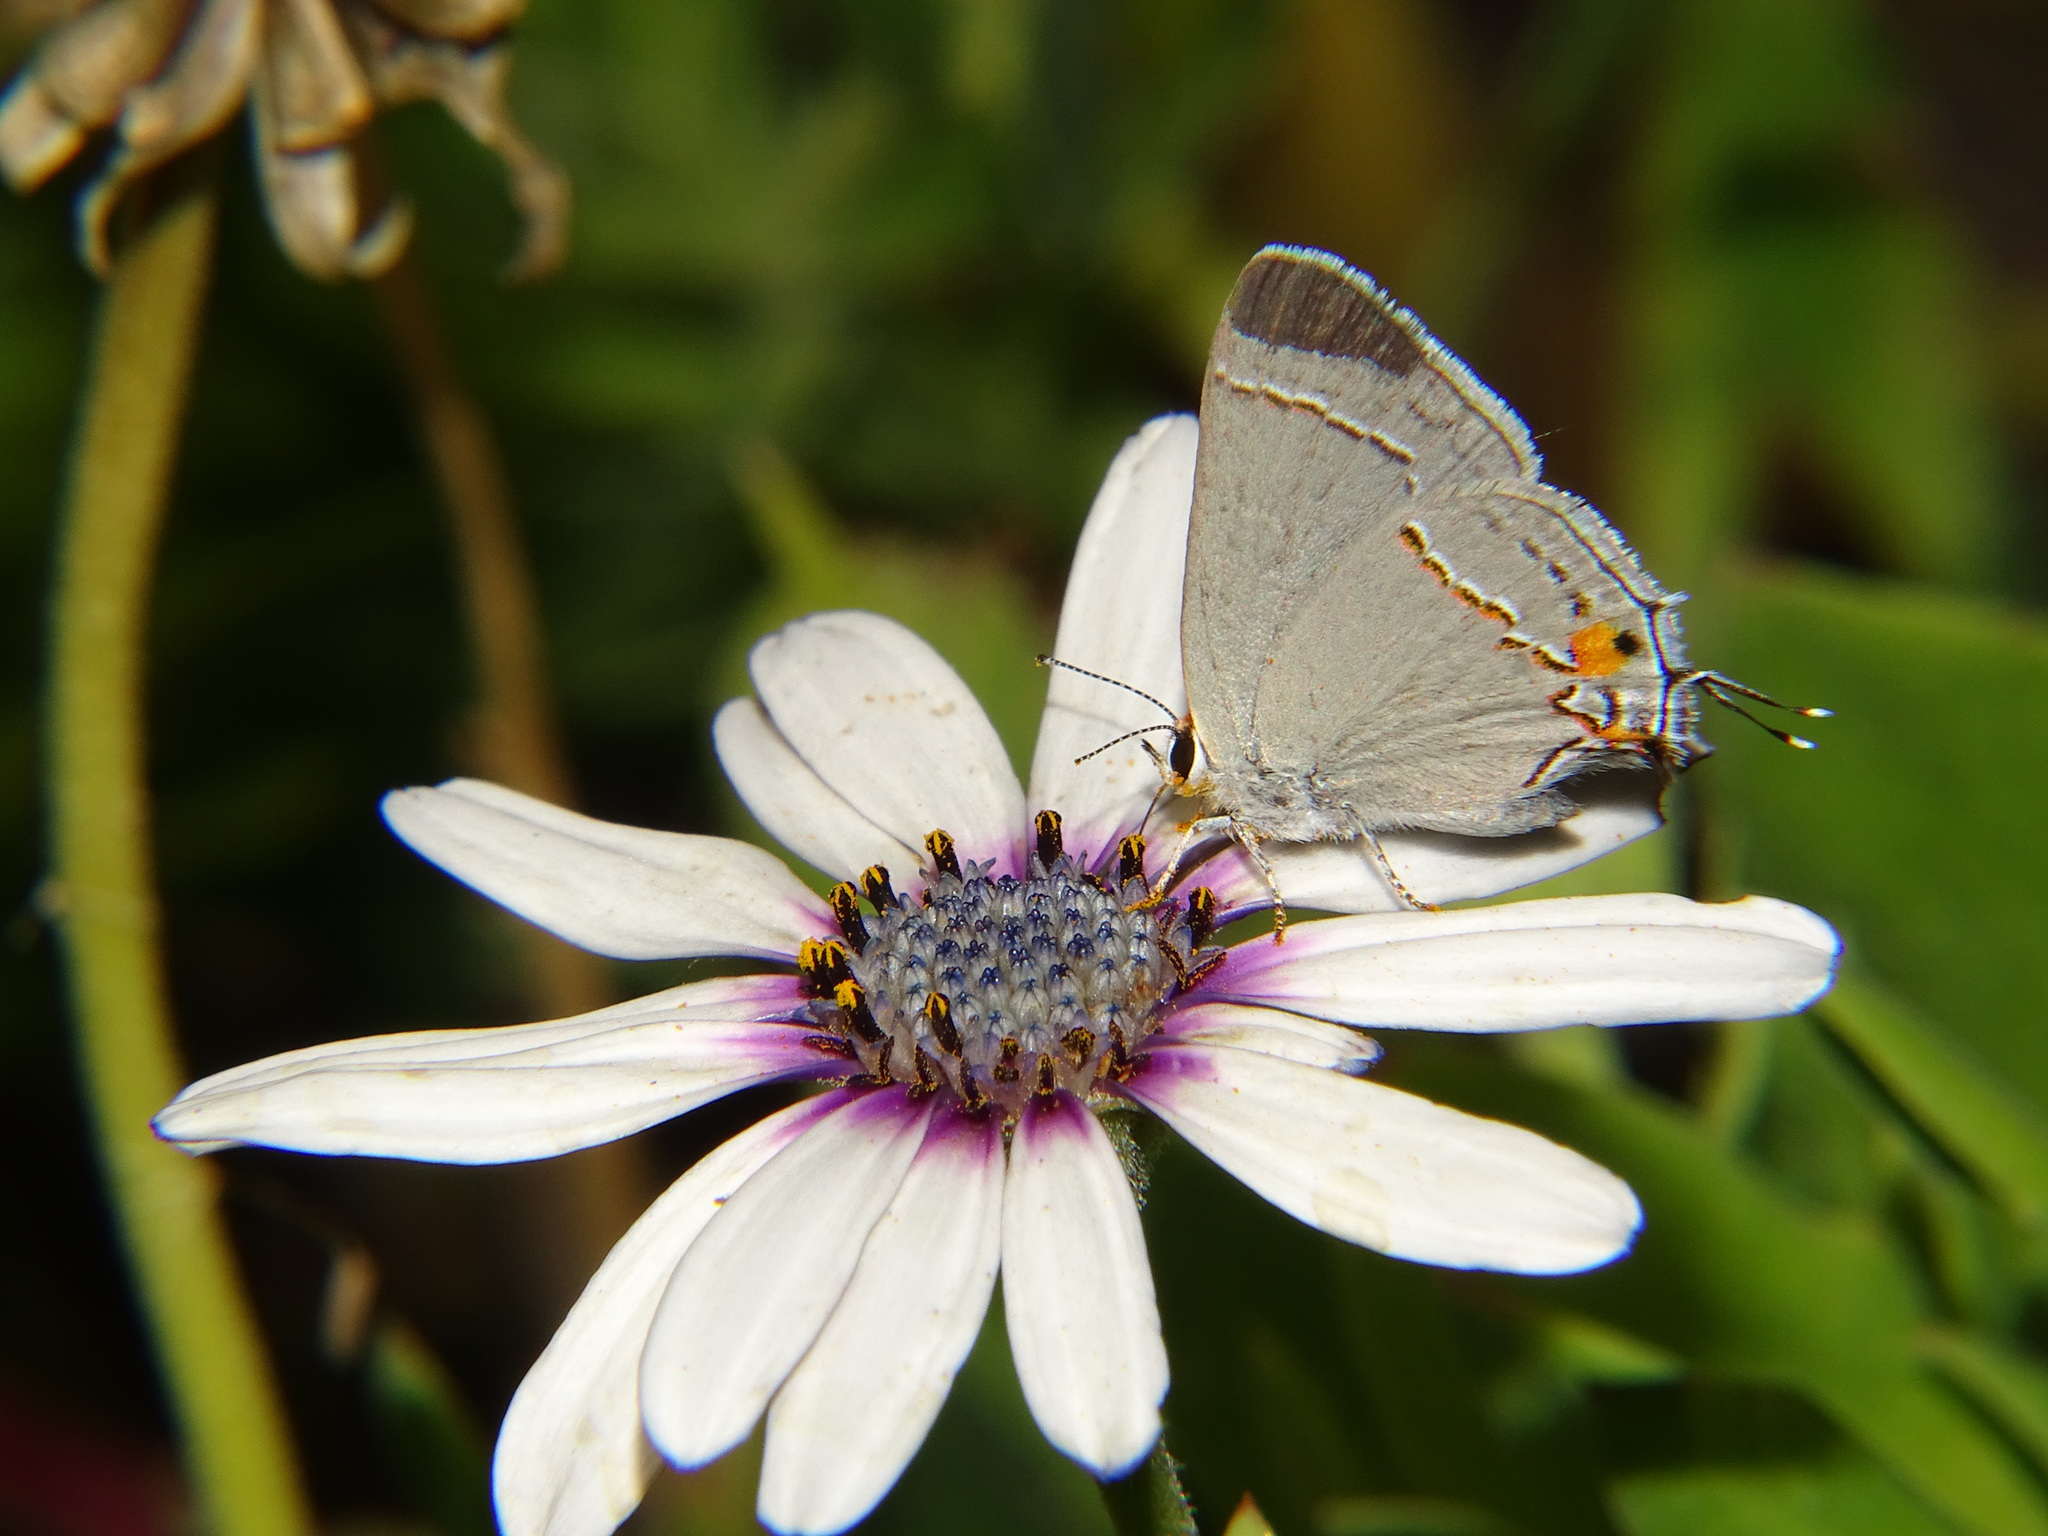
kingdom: Animalia
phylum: Arthropoda
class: Insecta
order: Lepidoptera
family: Lycaenidae
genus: Strymon
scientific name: Strymon melinus
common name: Gray hairstreak
